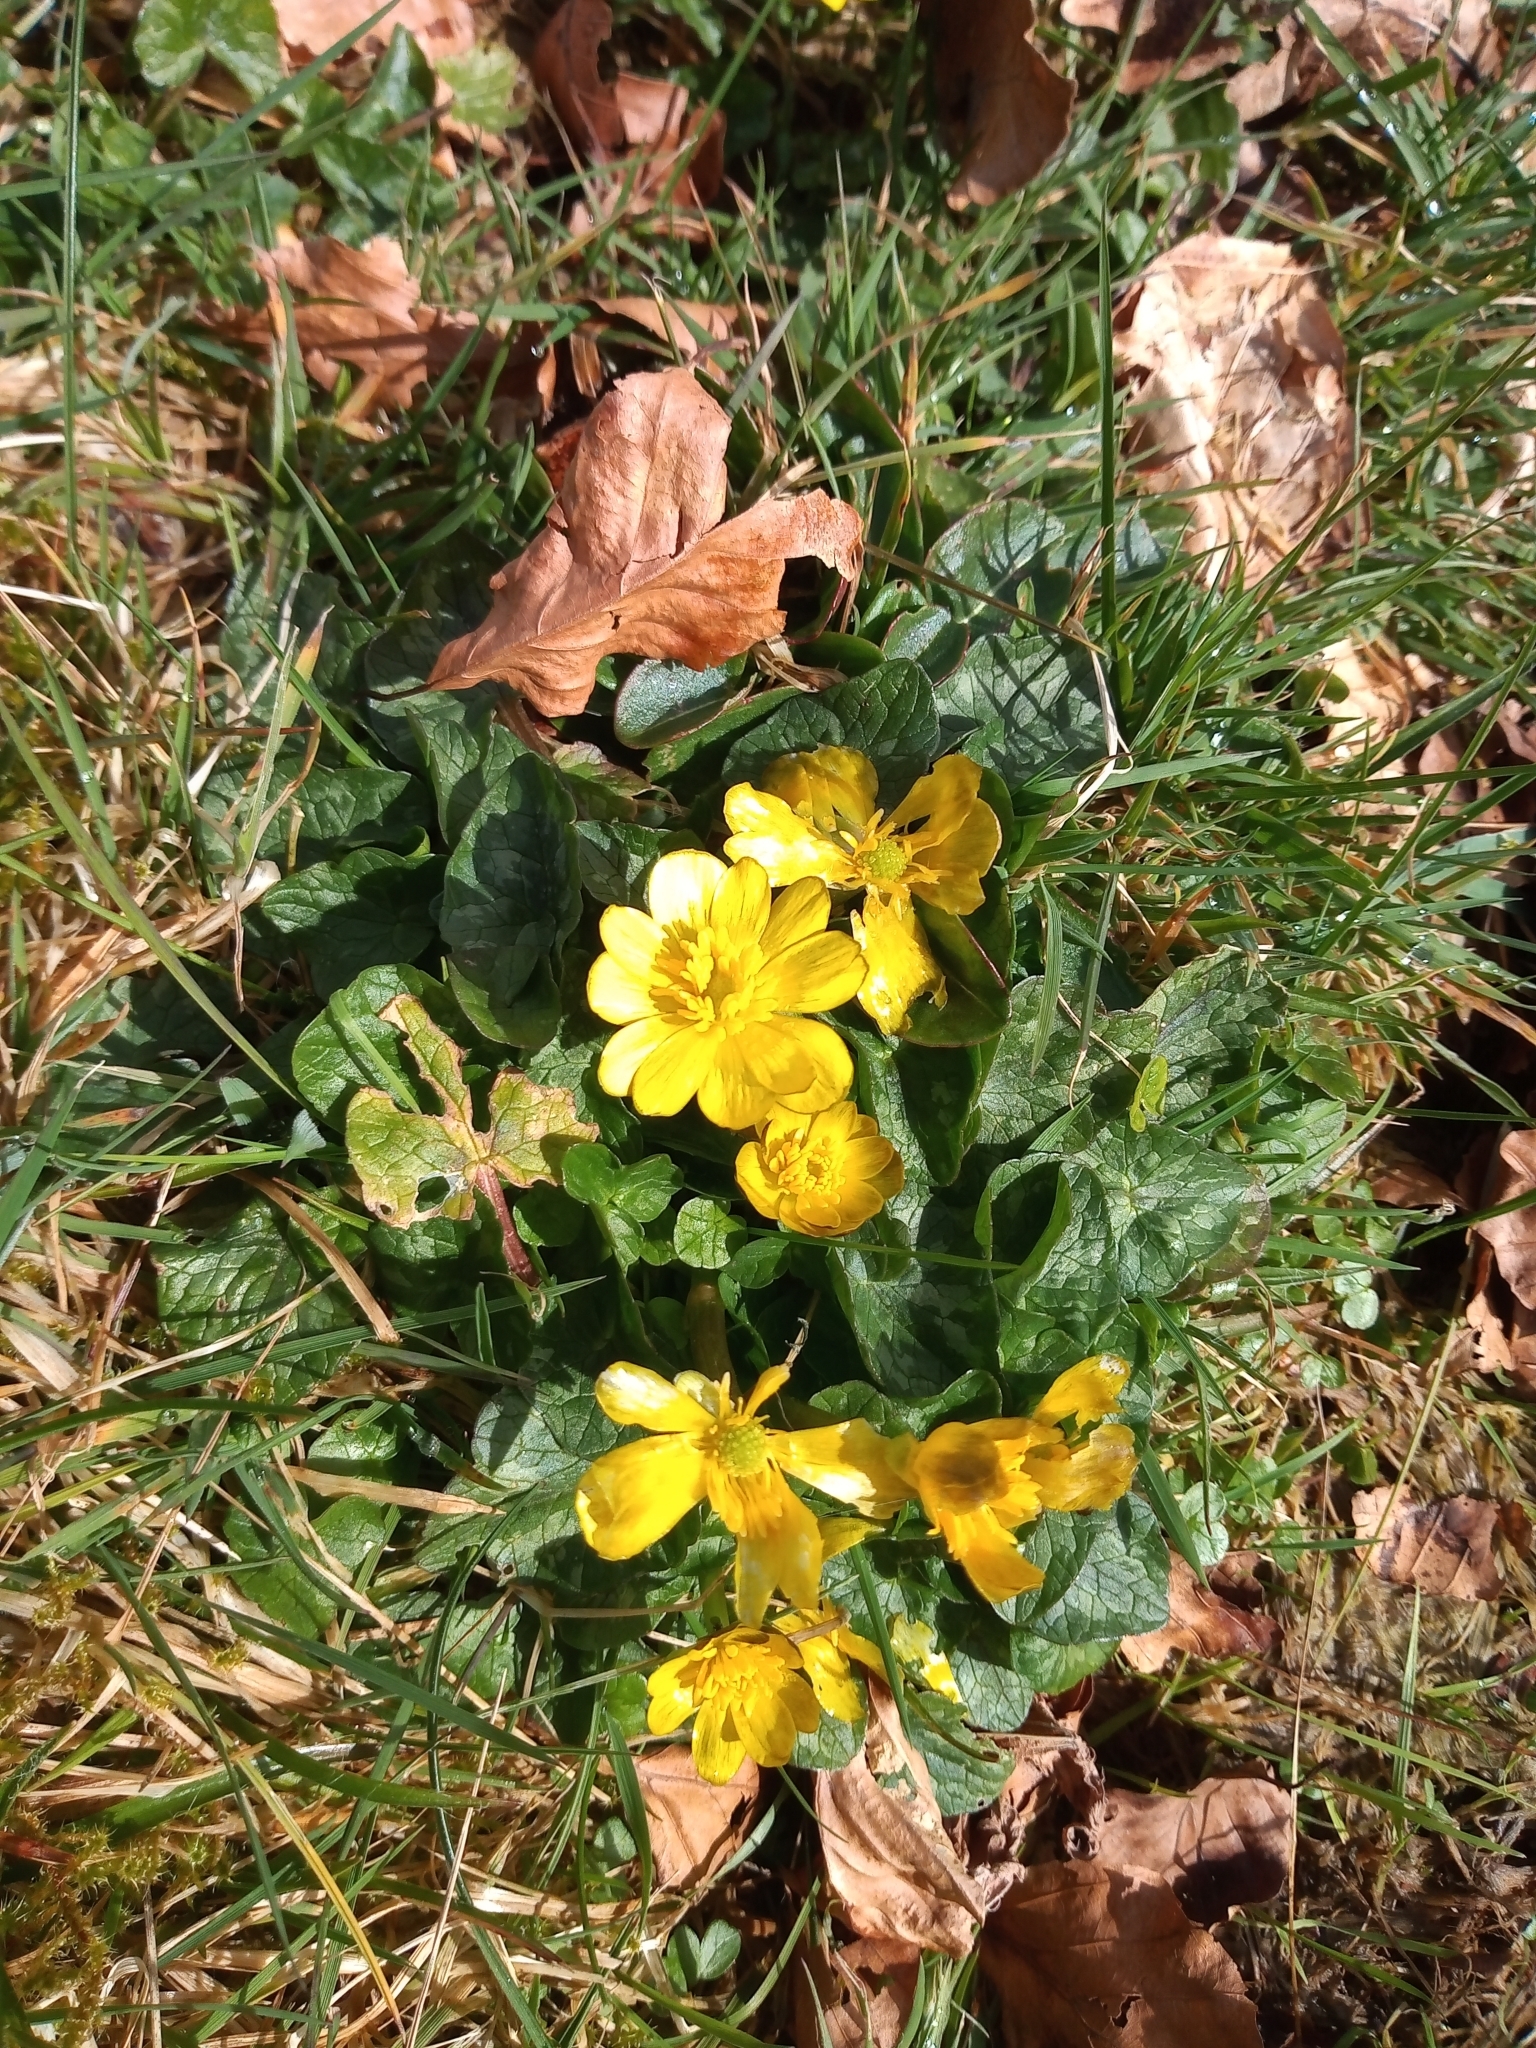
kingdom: Plantae
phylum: Tracheophyta
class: Magnoliopsida
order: Ranunculales
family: Ranunculaceae
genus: Ficaria
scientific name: Ficaria verna
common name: Lesser celandine
